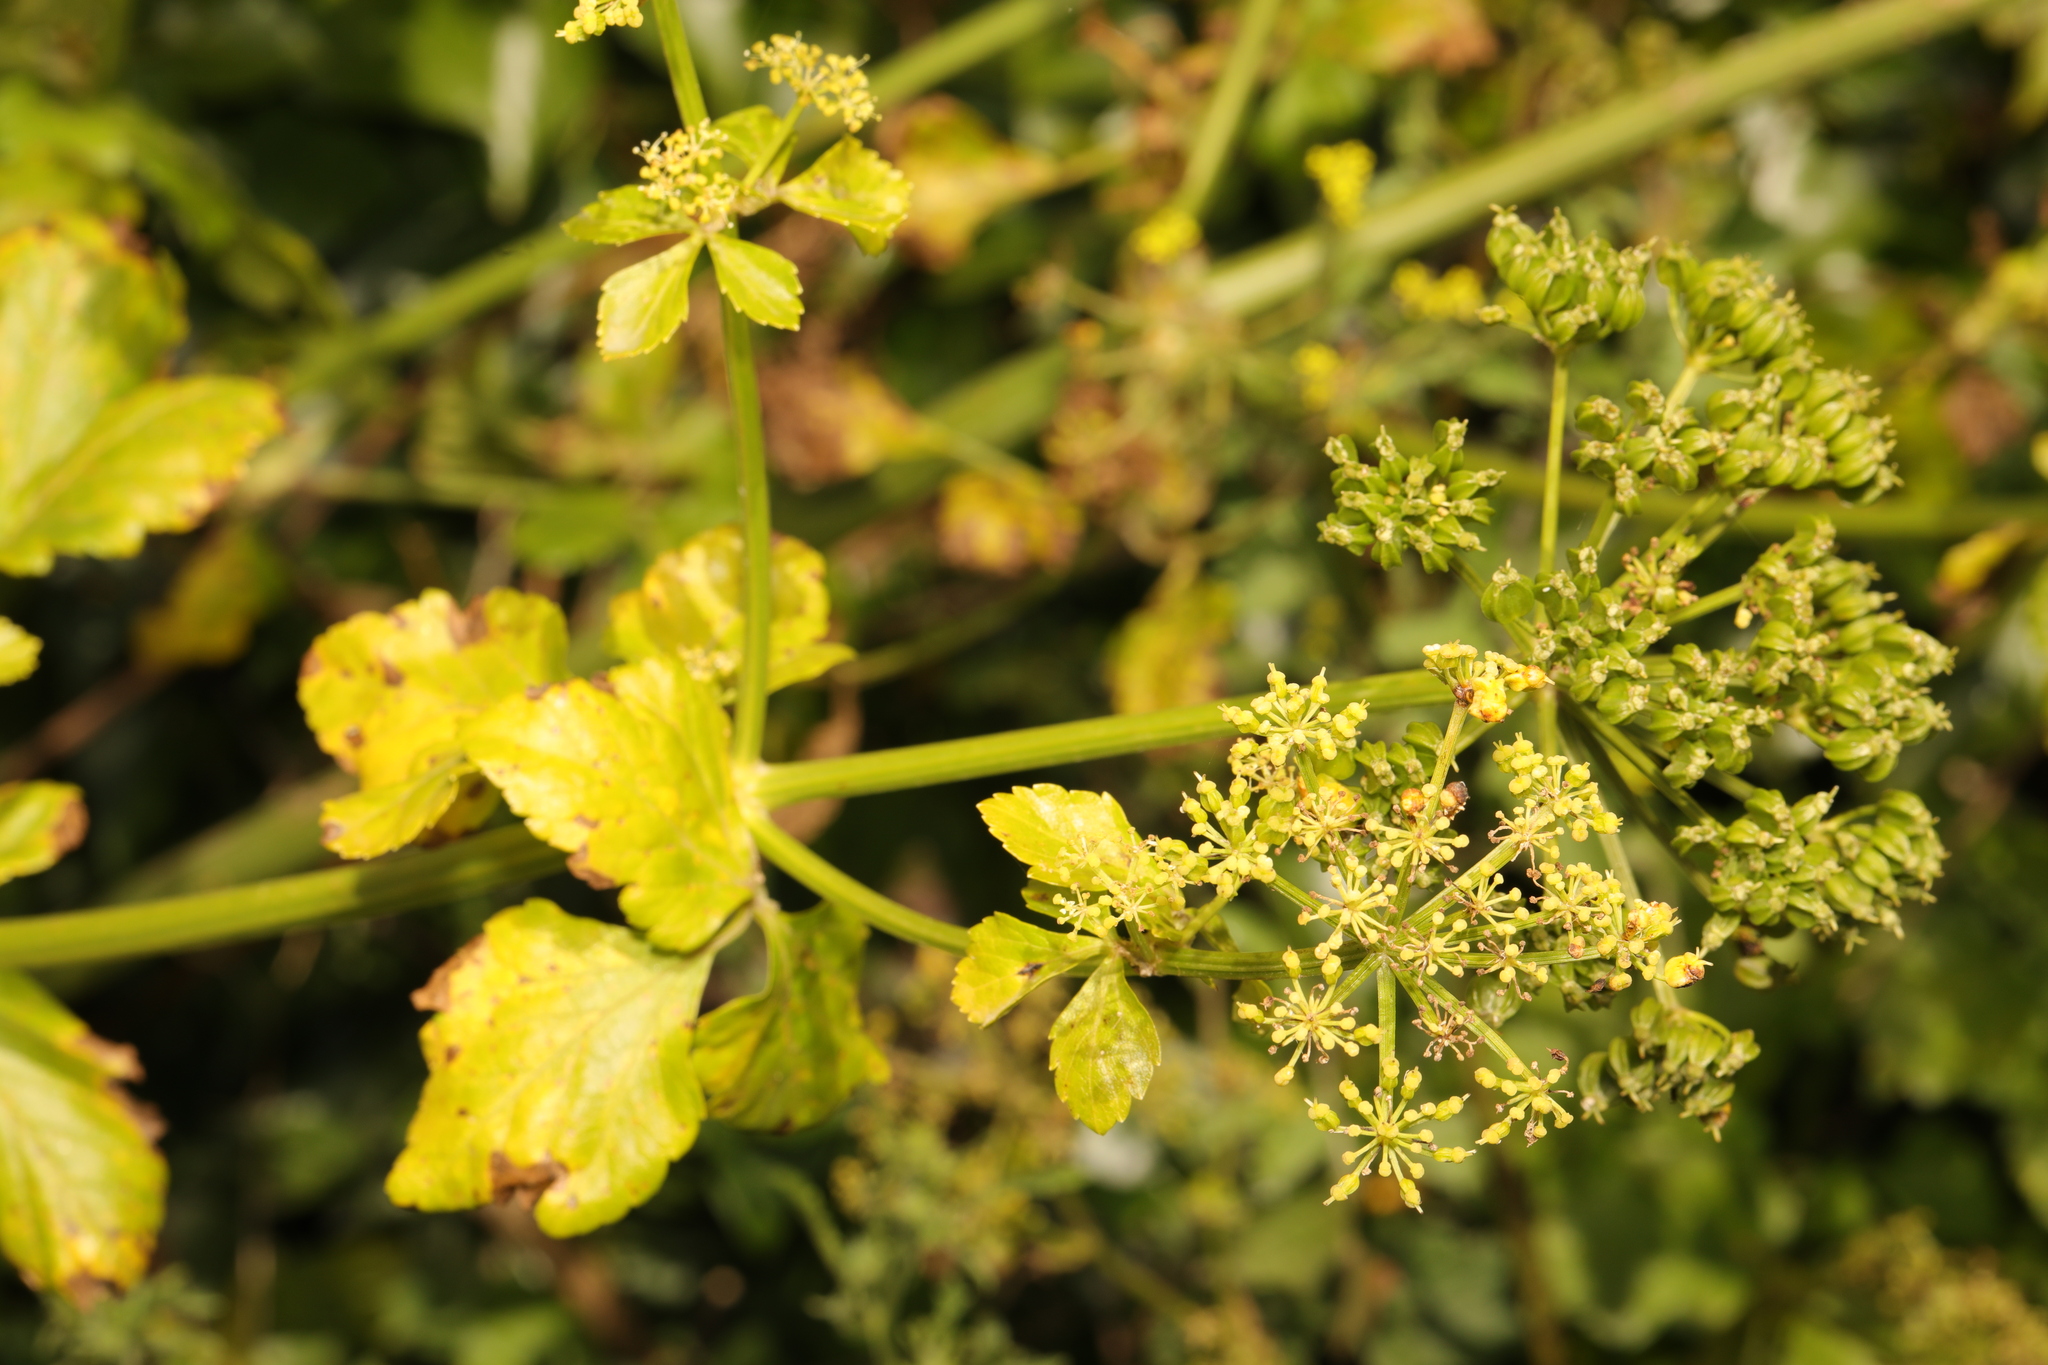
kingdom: Plantae
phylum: Tracheophyta
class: Magnoliopsida
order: Apiales
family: Apiaceae
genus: Smyrnium
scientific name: Smyrnium olusatrum
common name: Alexanders
